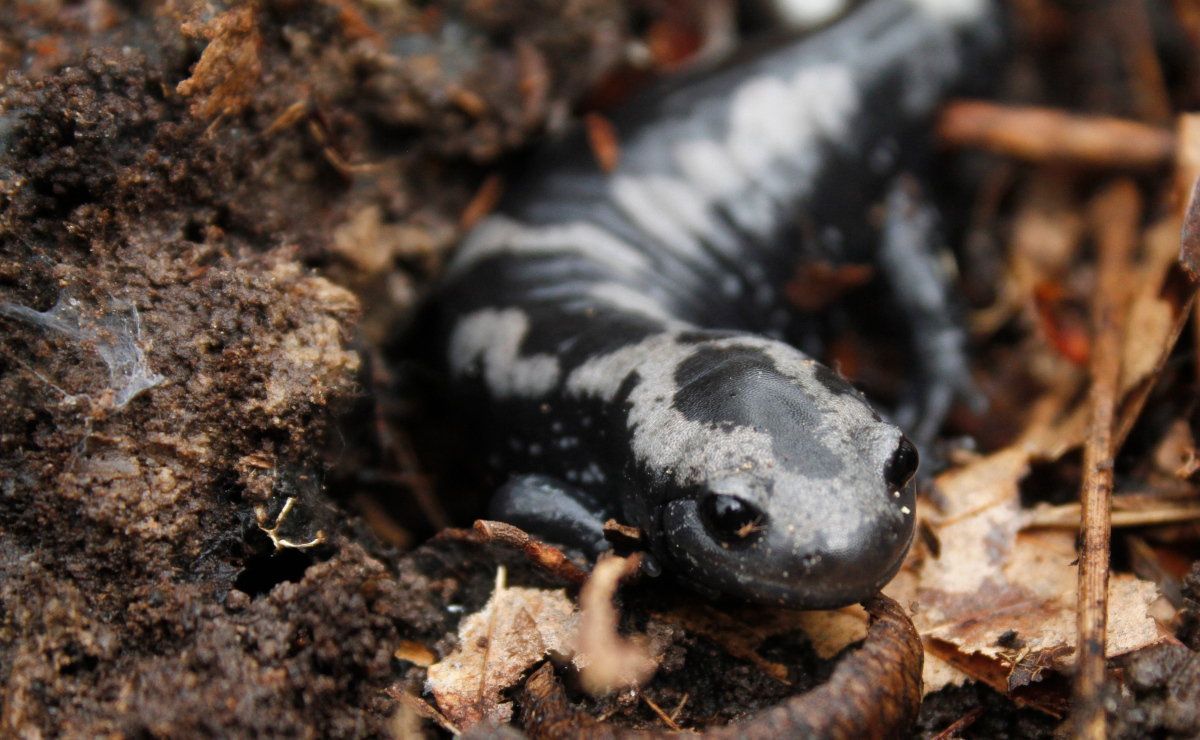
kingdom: Animalia
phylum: Chordata
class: Amphibia
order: Caudata
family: Ambystomatidae
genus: Ambystoma
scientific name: Ambystoma opacum
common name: Marbled salamander
